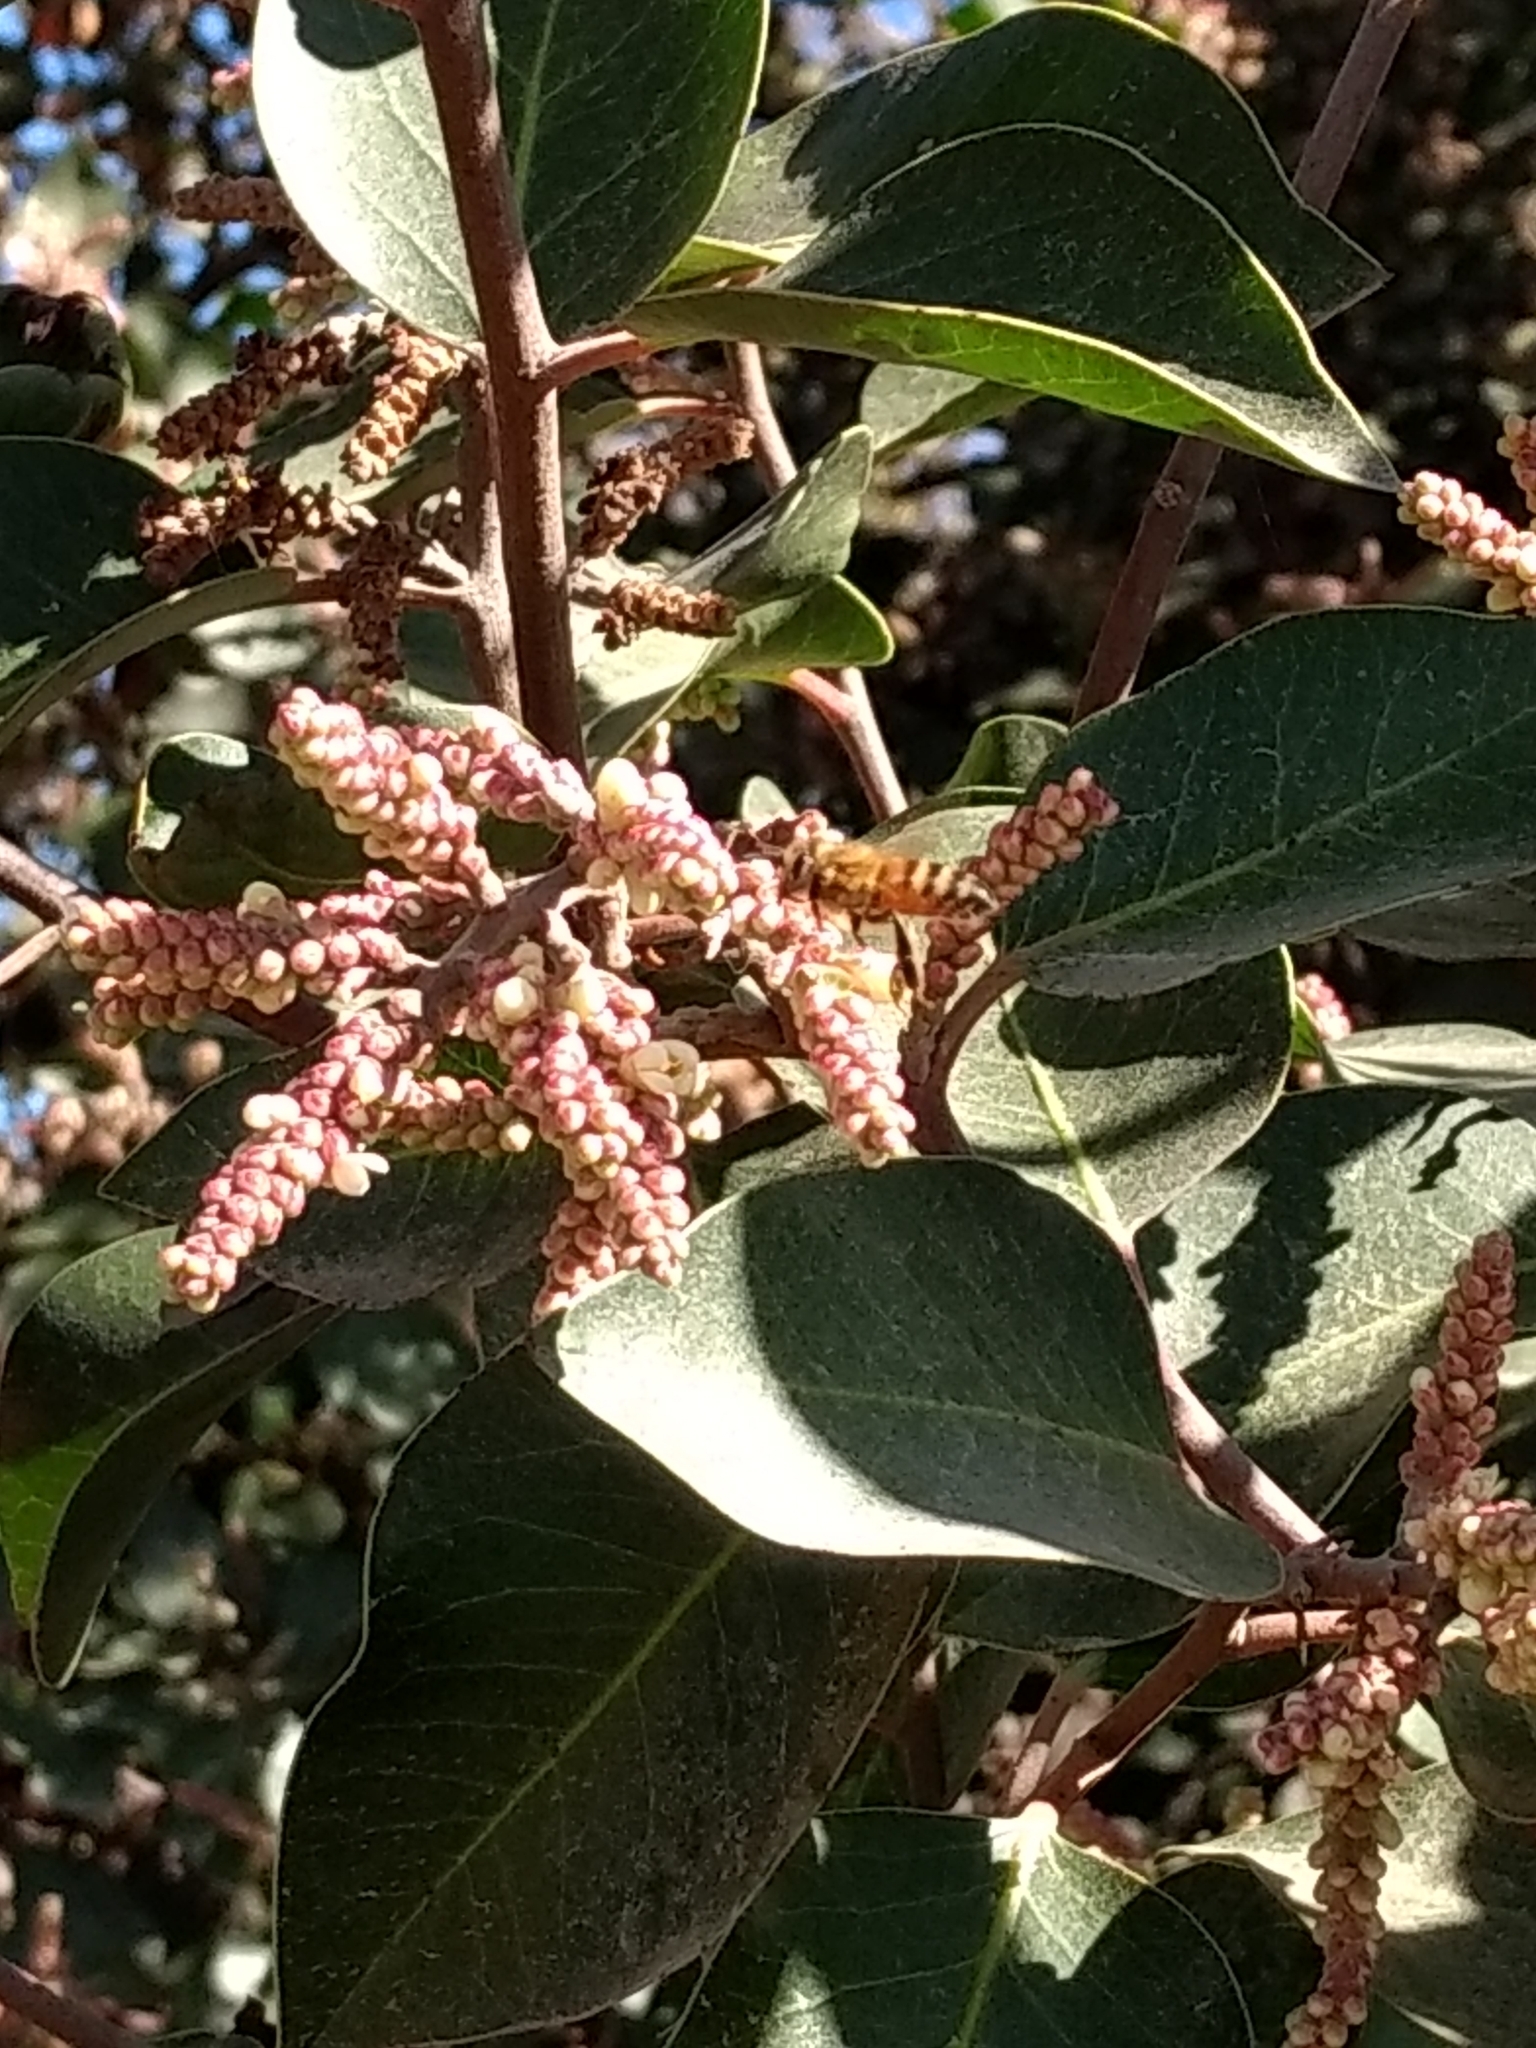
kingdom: Animalia
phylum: Arthropoda
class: Insecta
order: Hymenoptera
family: Apidae
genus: Apis
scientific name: Apis mellifera
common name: Honey bee
